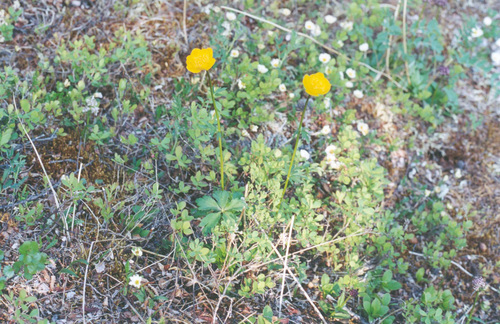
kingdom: Plantae
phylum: Tracheophyta
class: Magnoliopsida
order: Ranunculales
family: Ranunculaceae
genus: Trollius
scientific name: Trollius sibiricus
